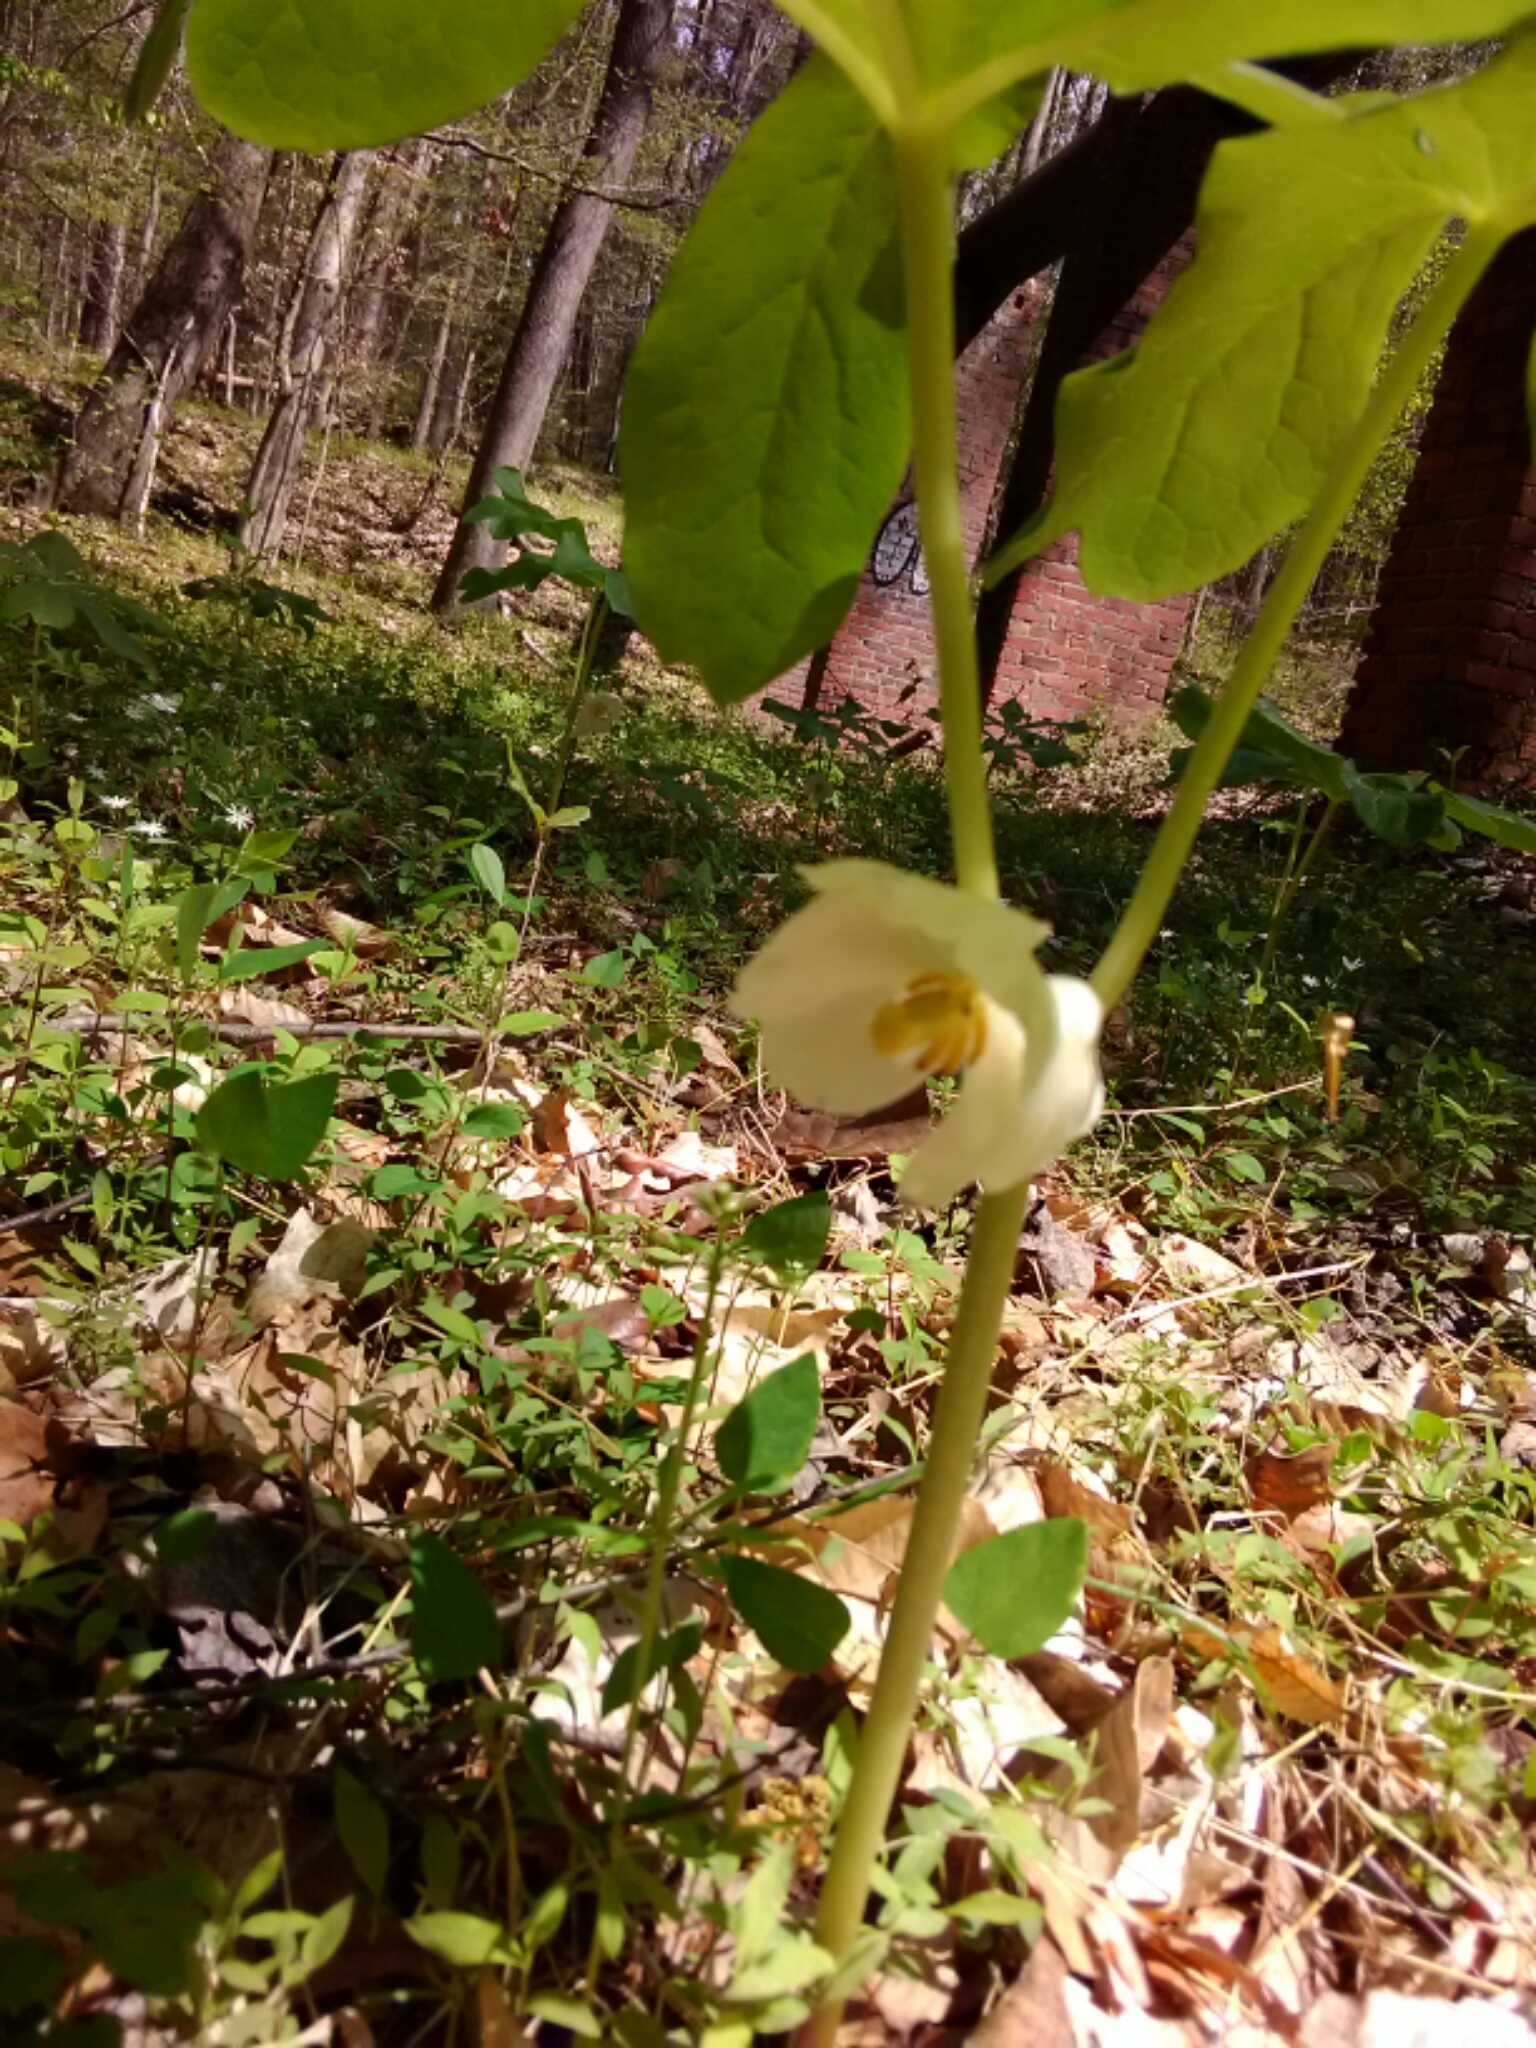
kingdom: Plantae
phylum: Tracheophyta
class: Magnoliopsida
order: Ranunculales
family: Berberidaceae
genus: Podophyllum
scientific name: Podophyllum peltatum
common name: Wild mandrake
